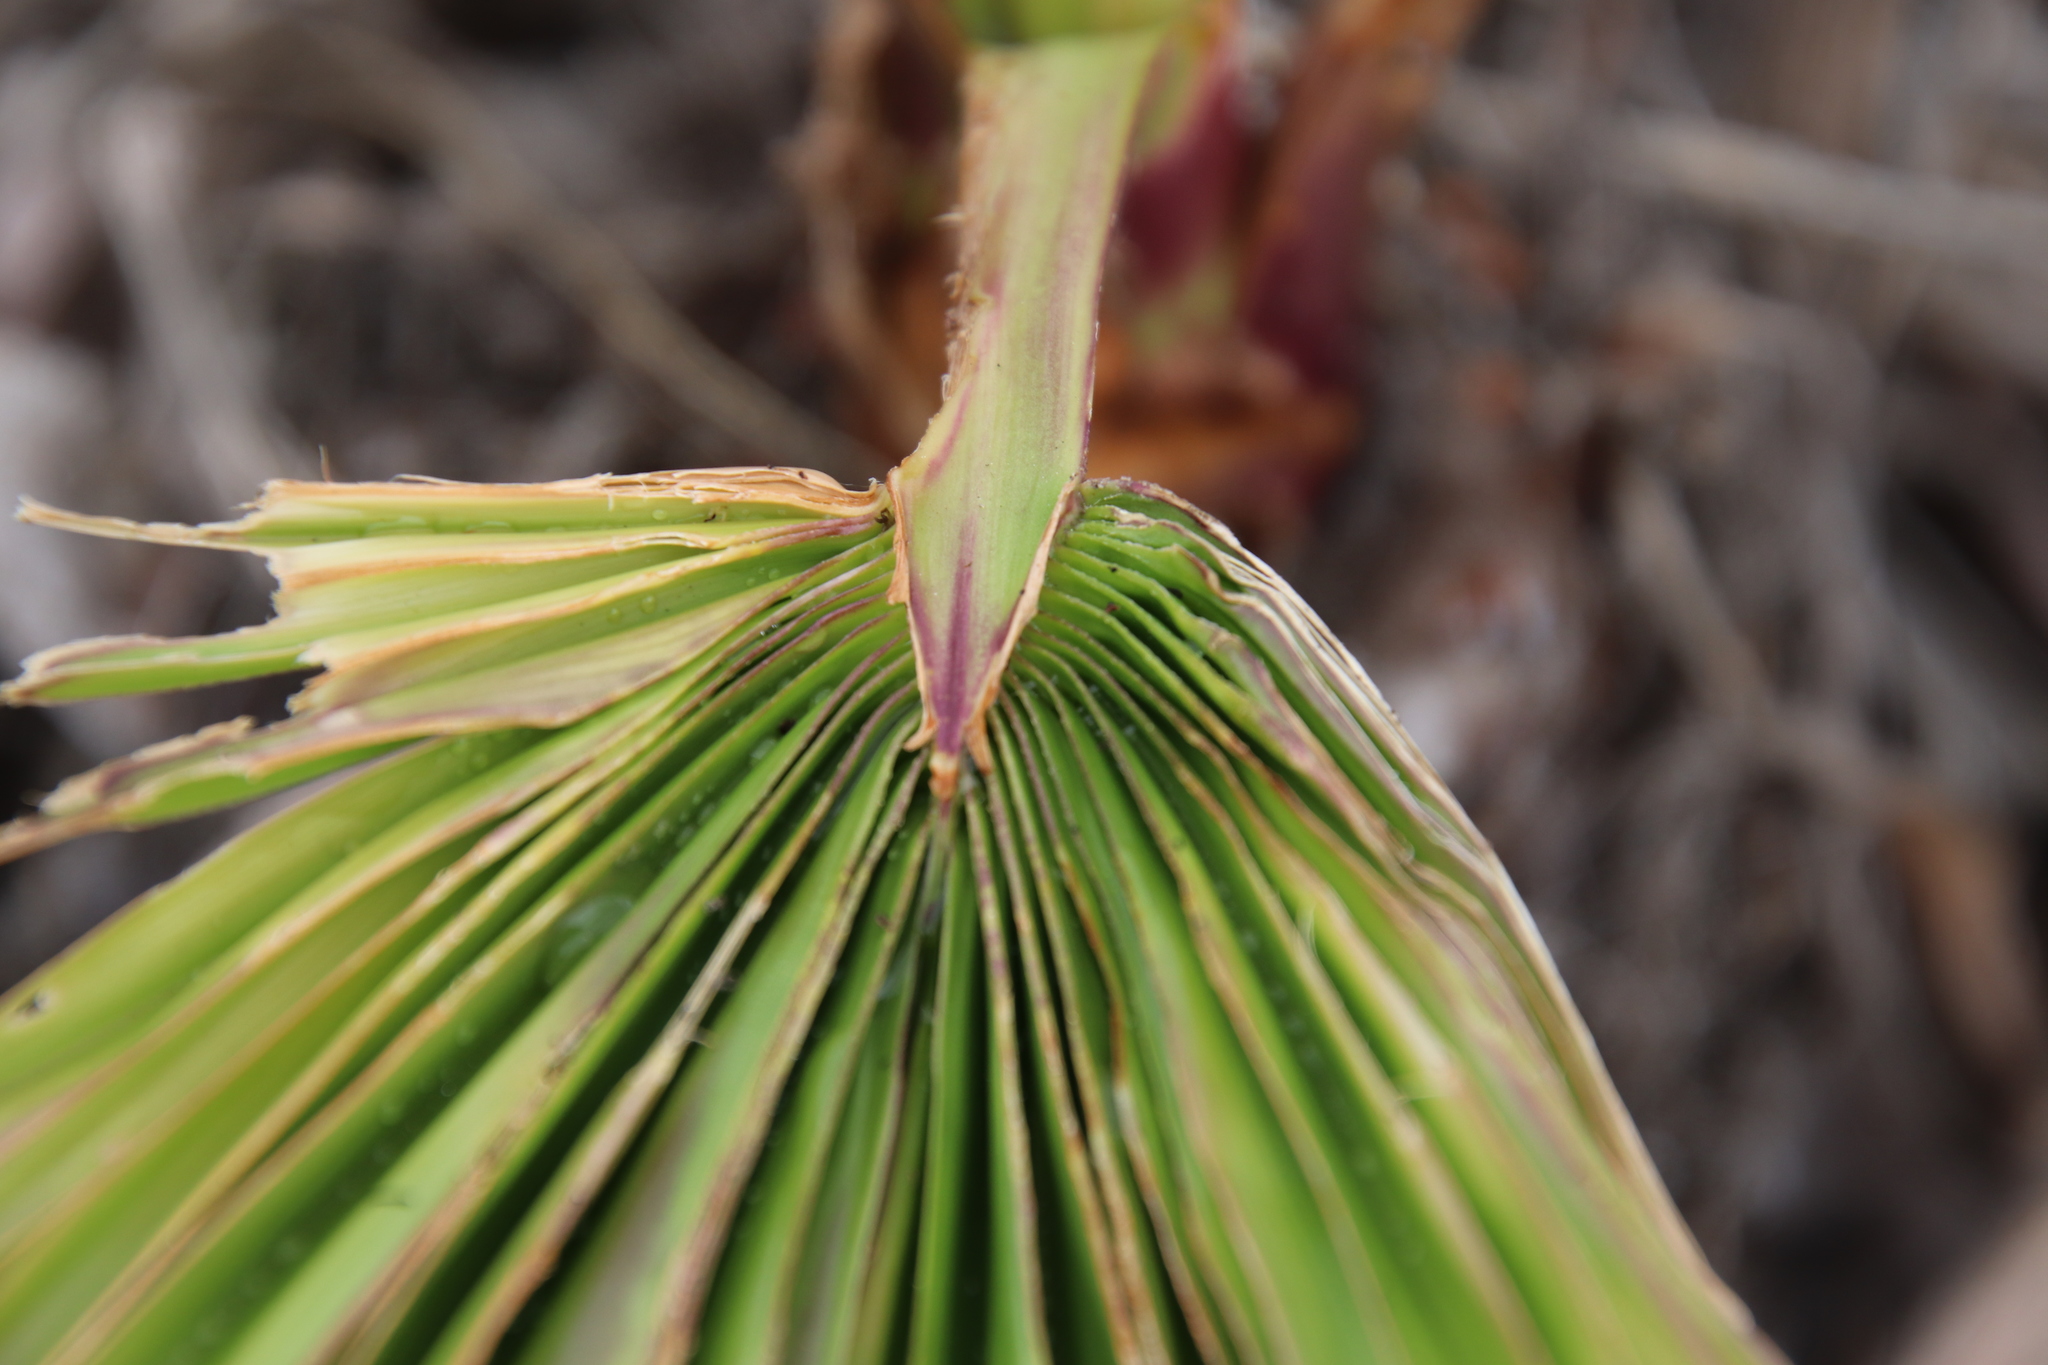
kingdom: Plantae
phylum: Tracheophyta
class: Liliopsida
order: Arecales
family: Arecaceae
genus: Washingtonia
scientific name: Washingtonia robusta
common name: Mexican fan palm
